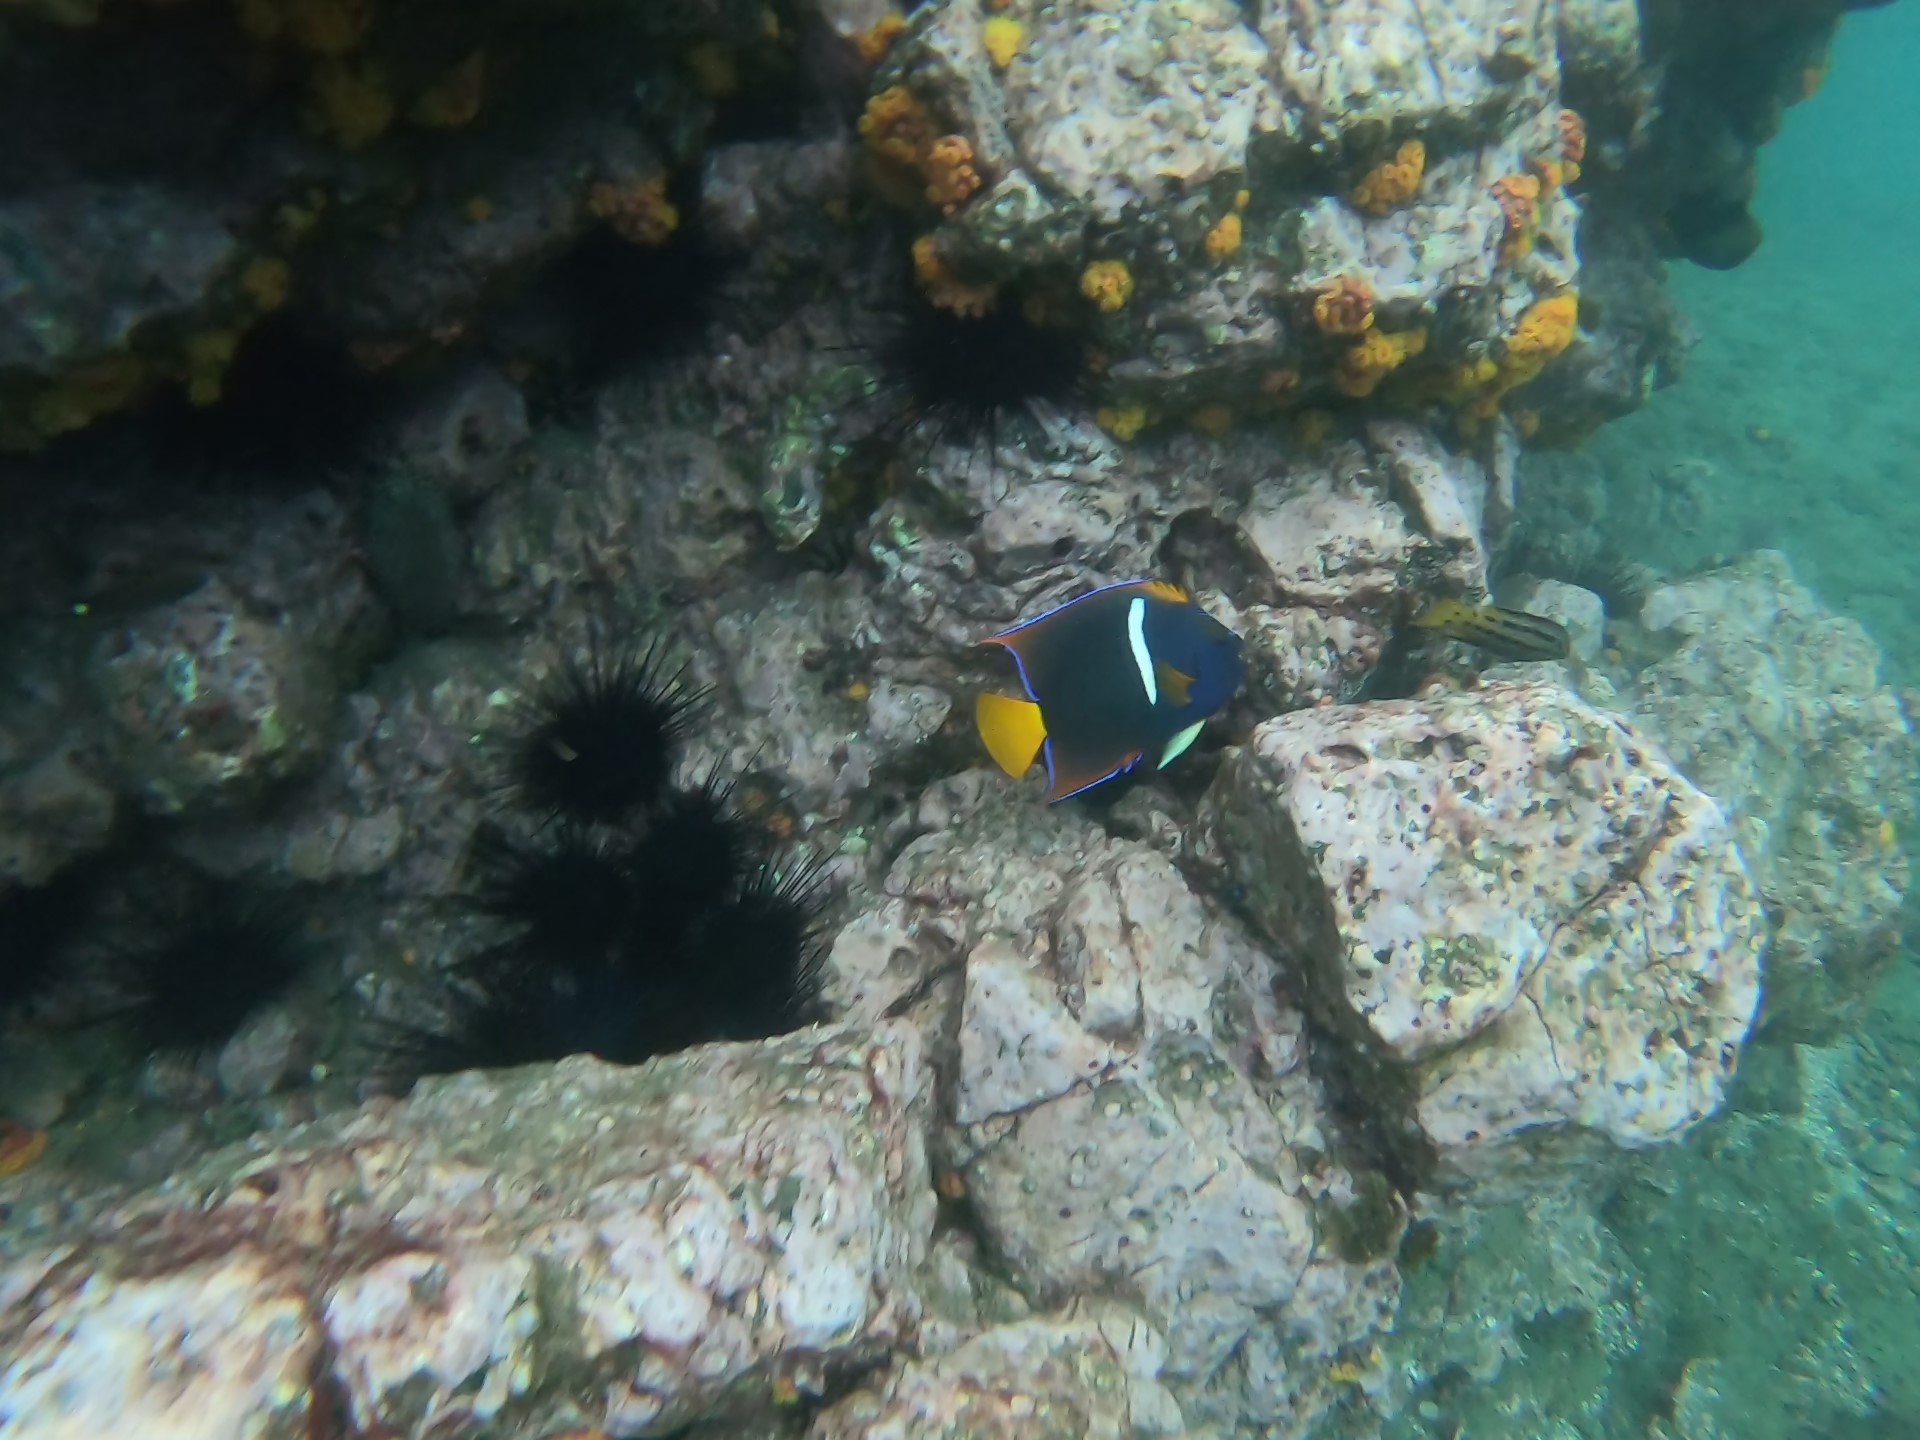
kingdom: Animalia
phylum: Chordata
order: Perciformes
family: Pomacanthidae
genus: Holacanthus
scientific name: Holacanthus passer
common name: King angelfish
